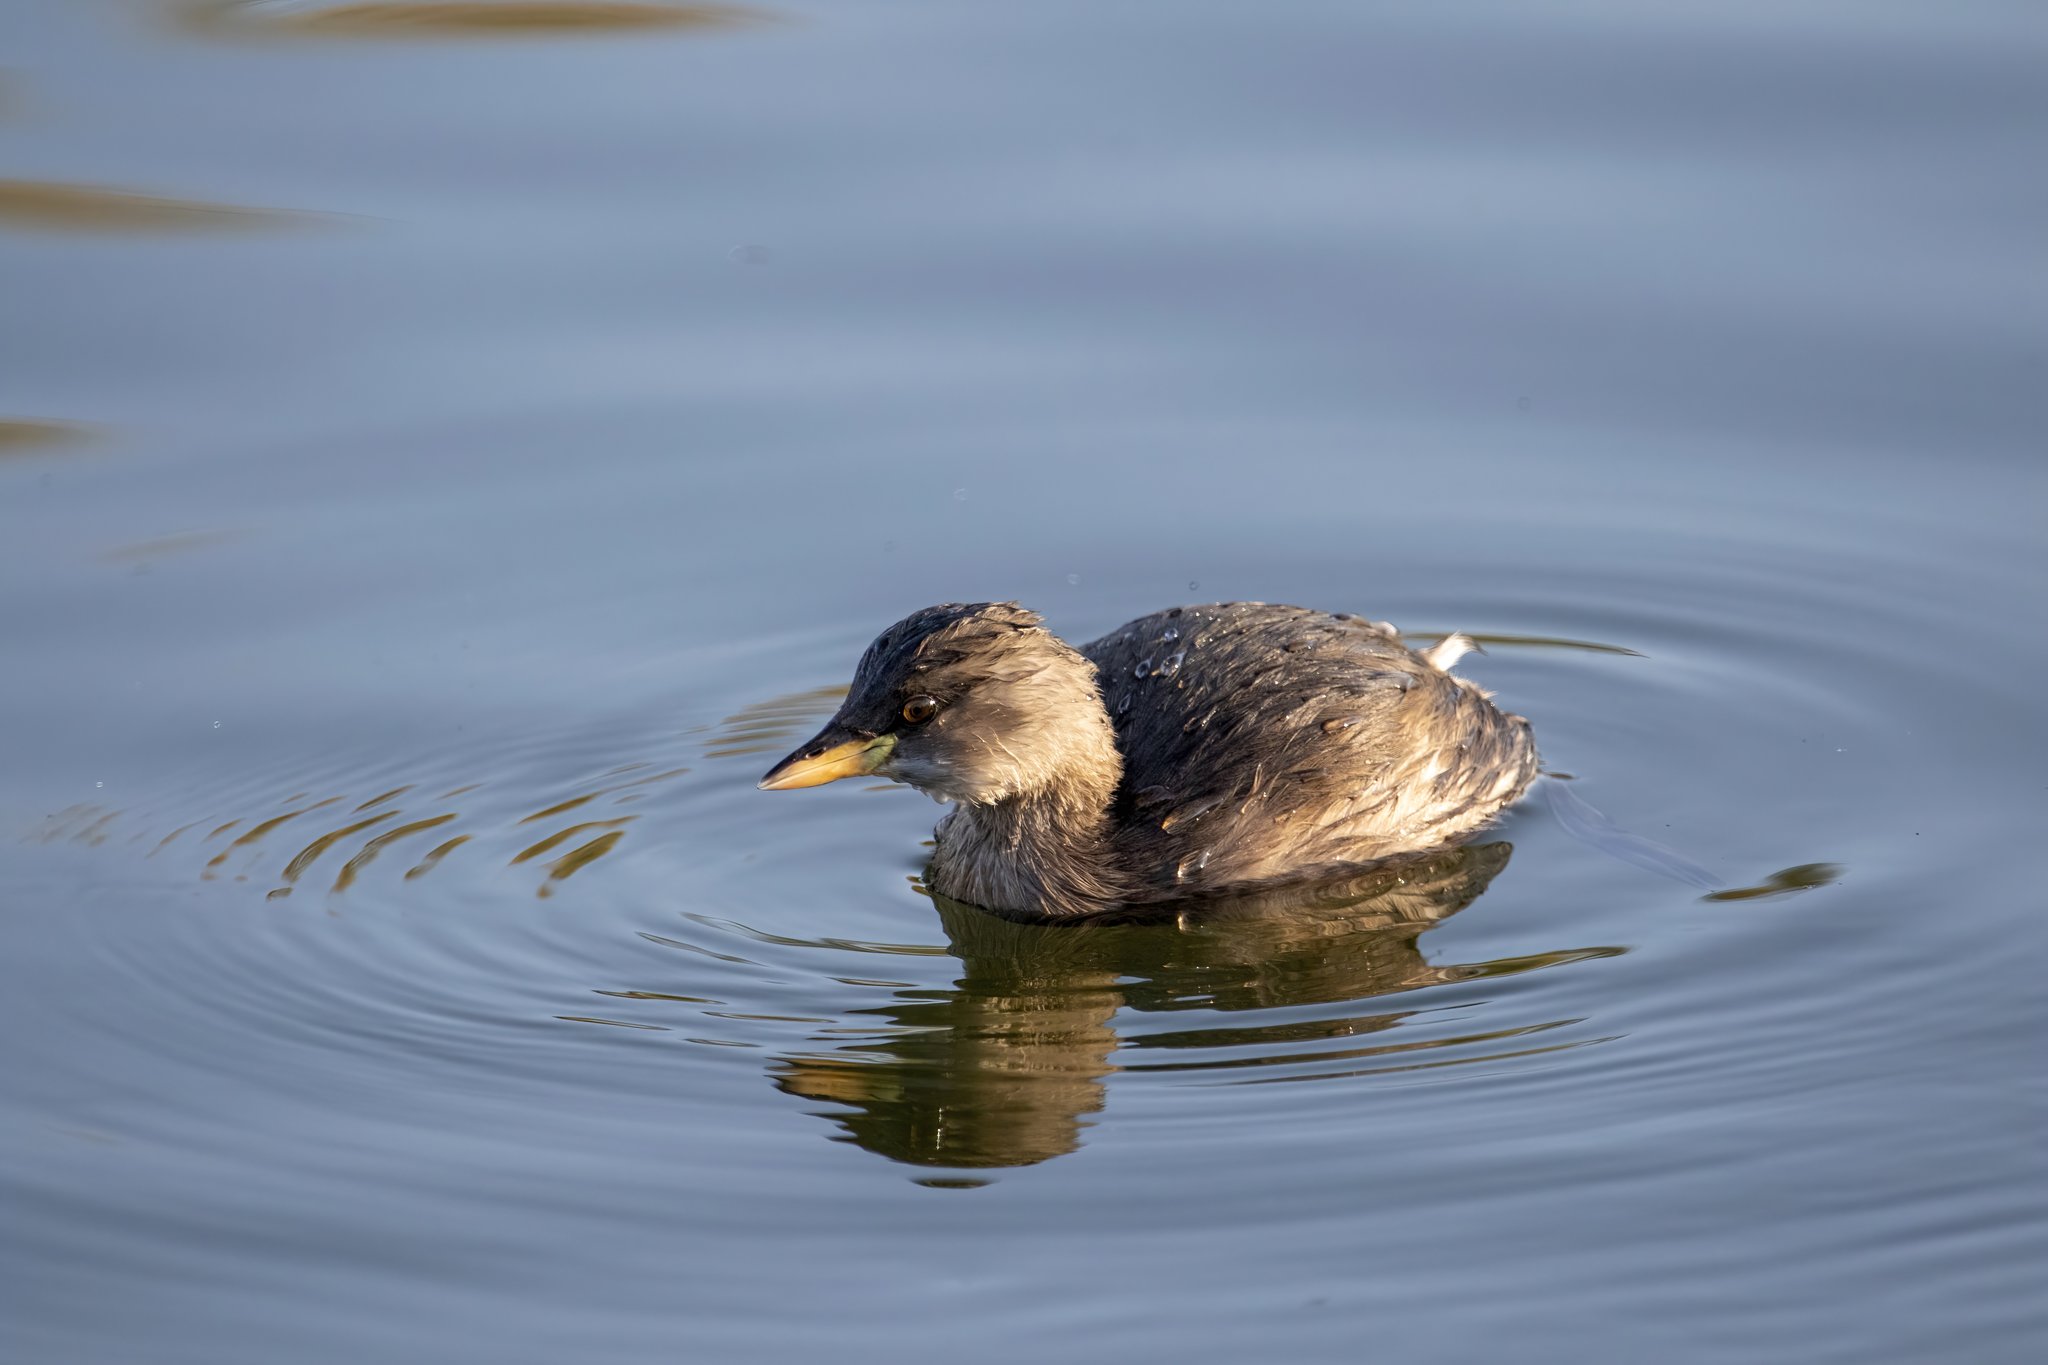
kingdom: Animalia
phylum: Chordata
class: Aves
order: Podicipediformes
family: Podicipedidae
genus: Tachybaptus
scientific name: Tachybaptus ruficollis
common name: Little grebe
